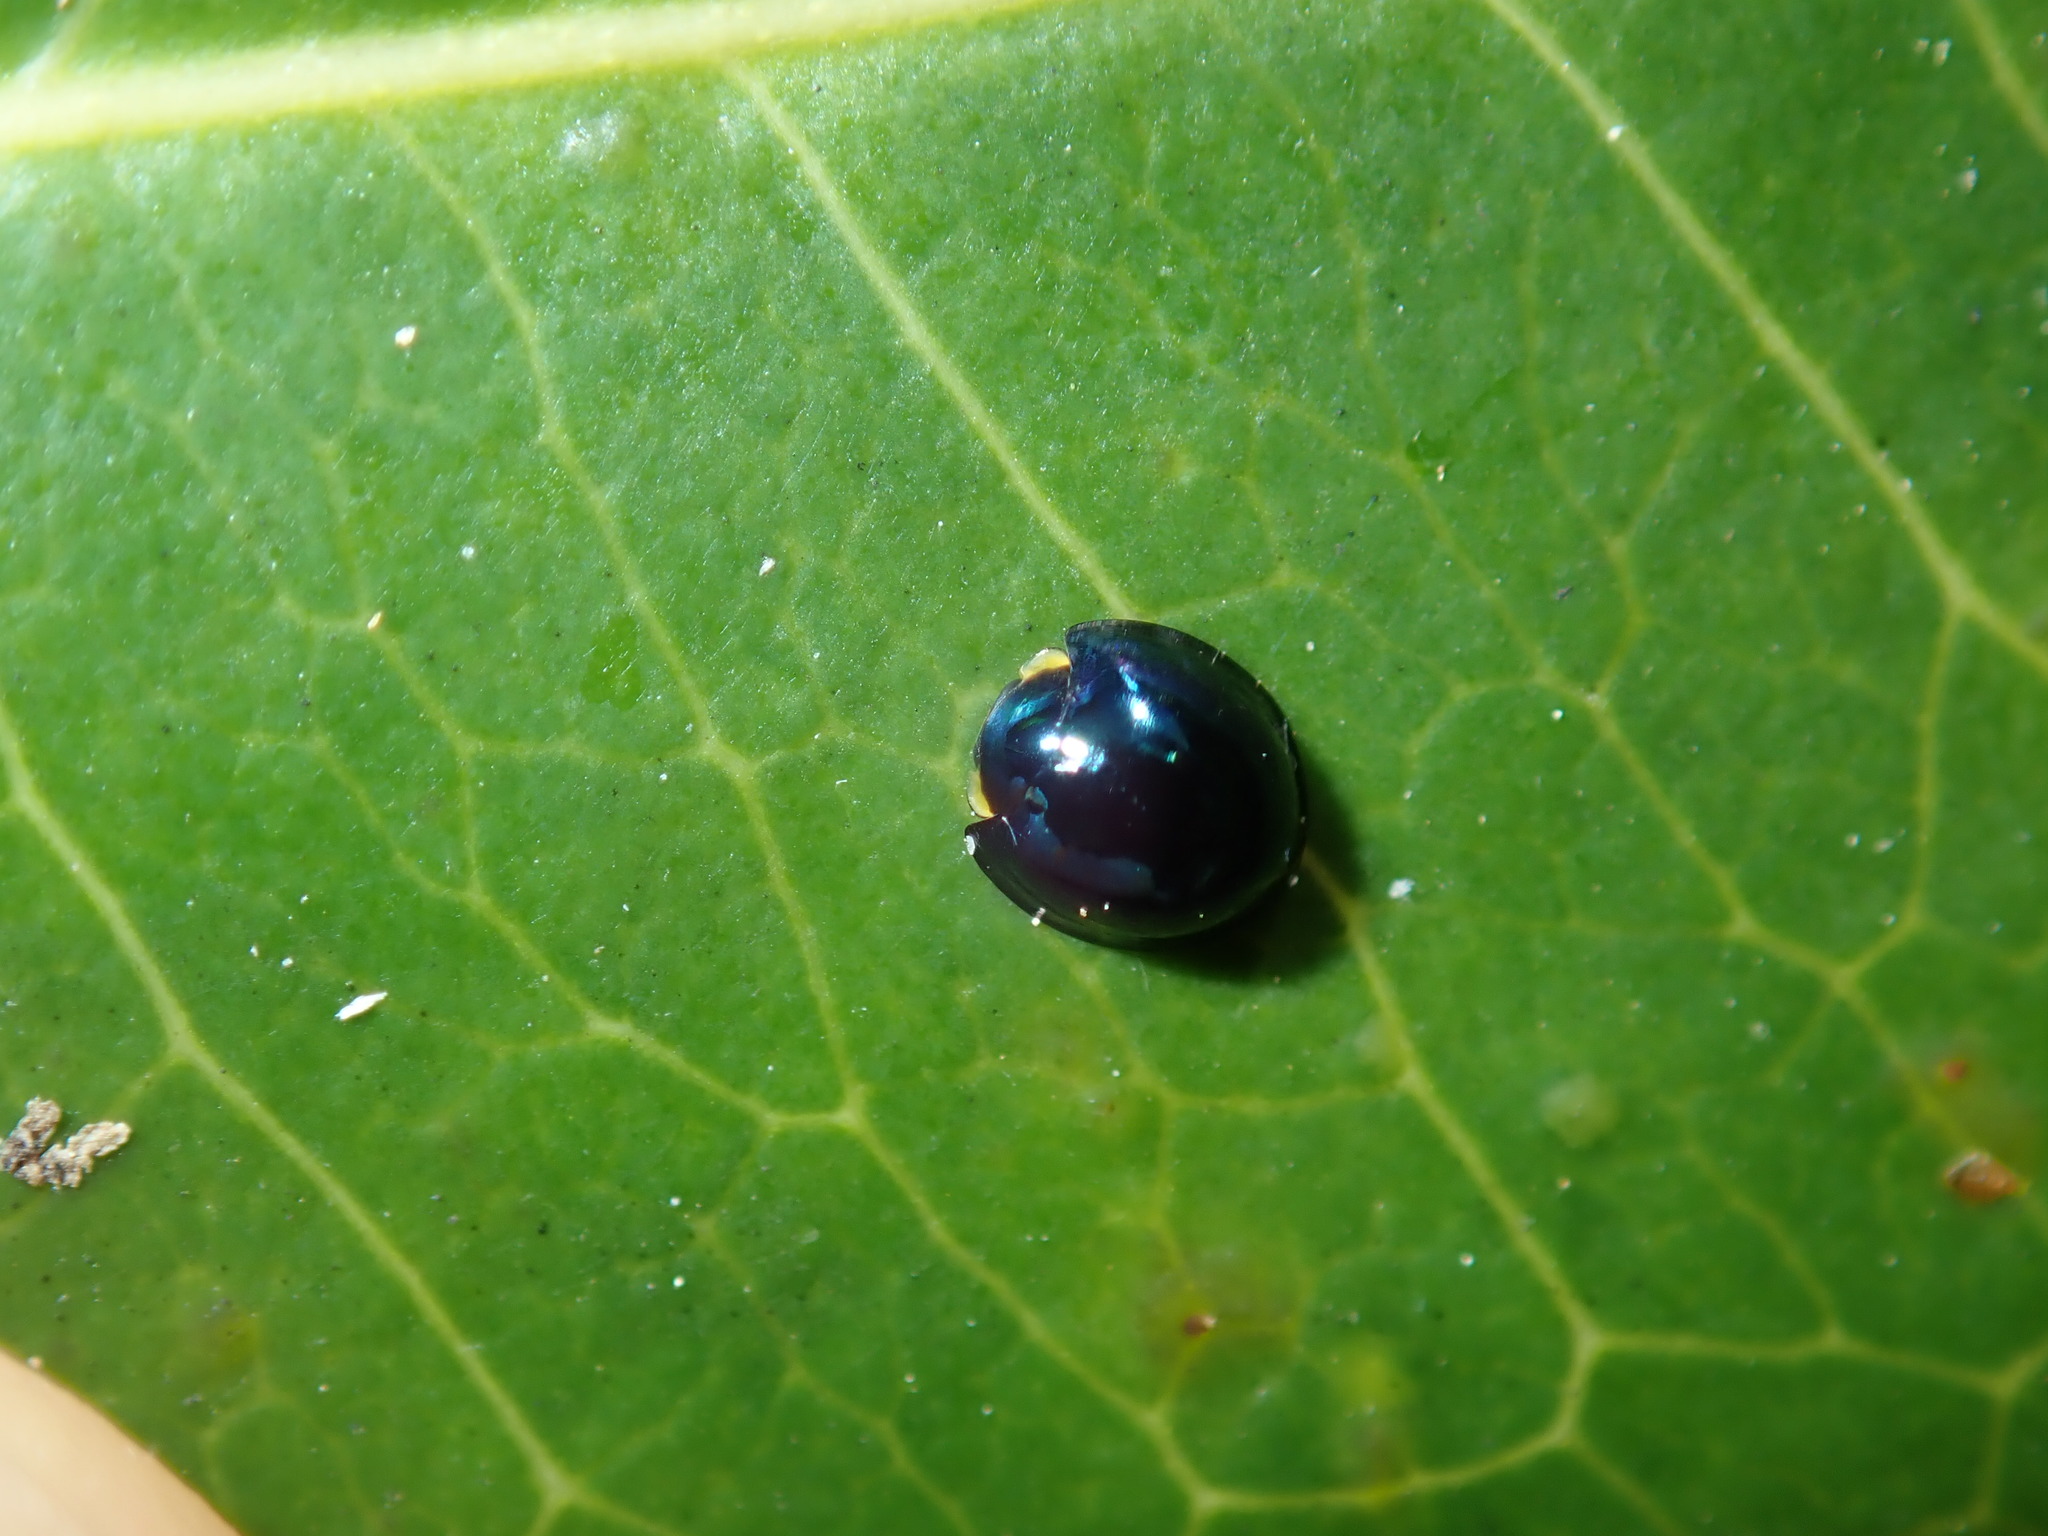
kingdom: Animalia
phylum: Arthropoda
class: Insecta
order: Coleoptera
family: Coccinellidae
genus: Halmus
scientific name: Halmus chalybeus
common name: Steel blue ladybird beetle
